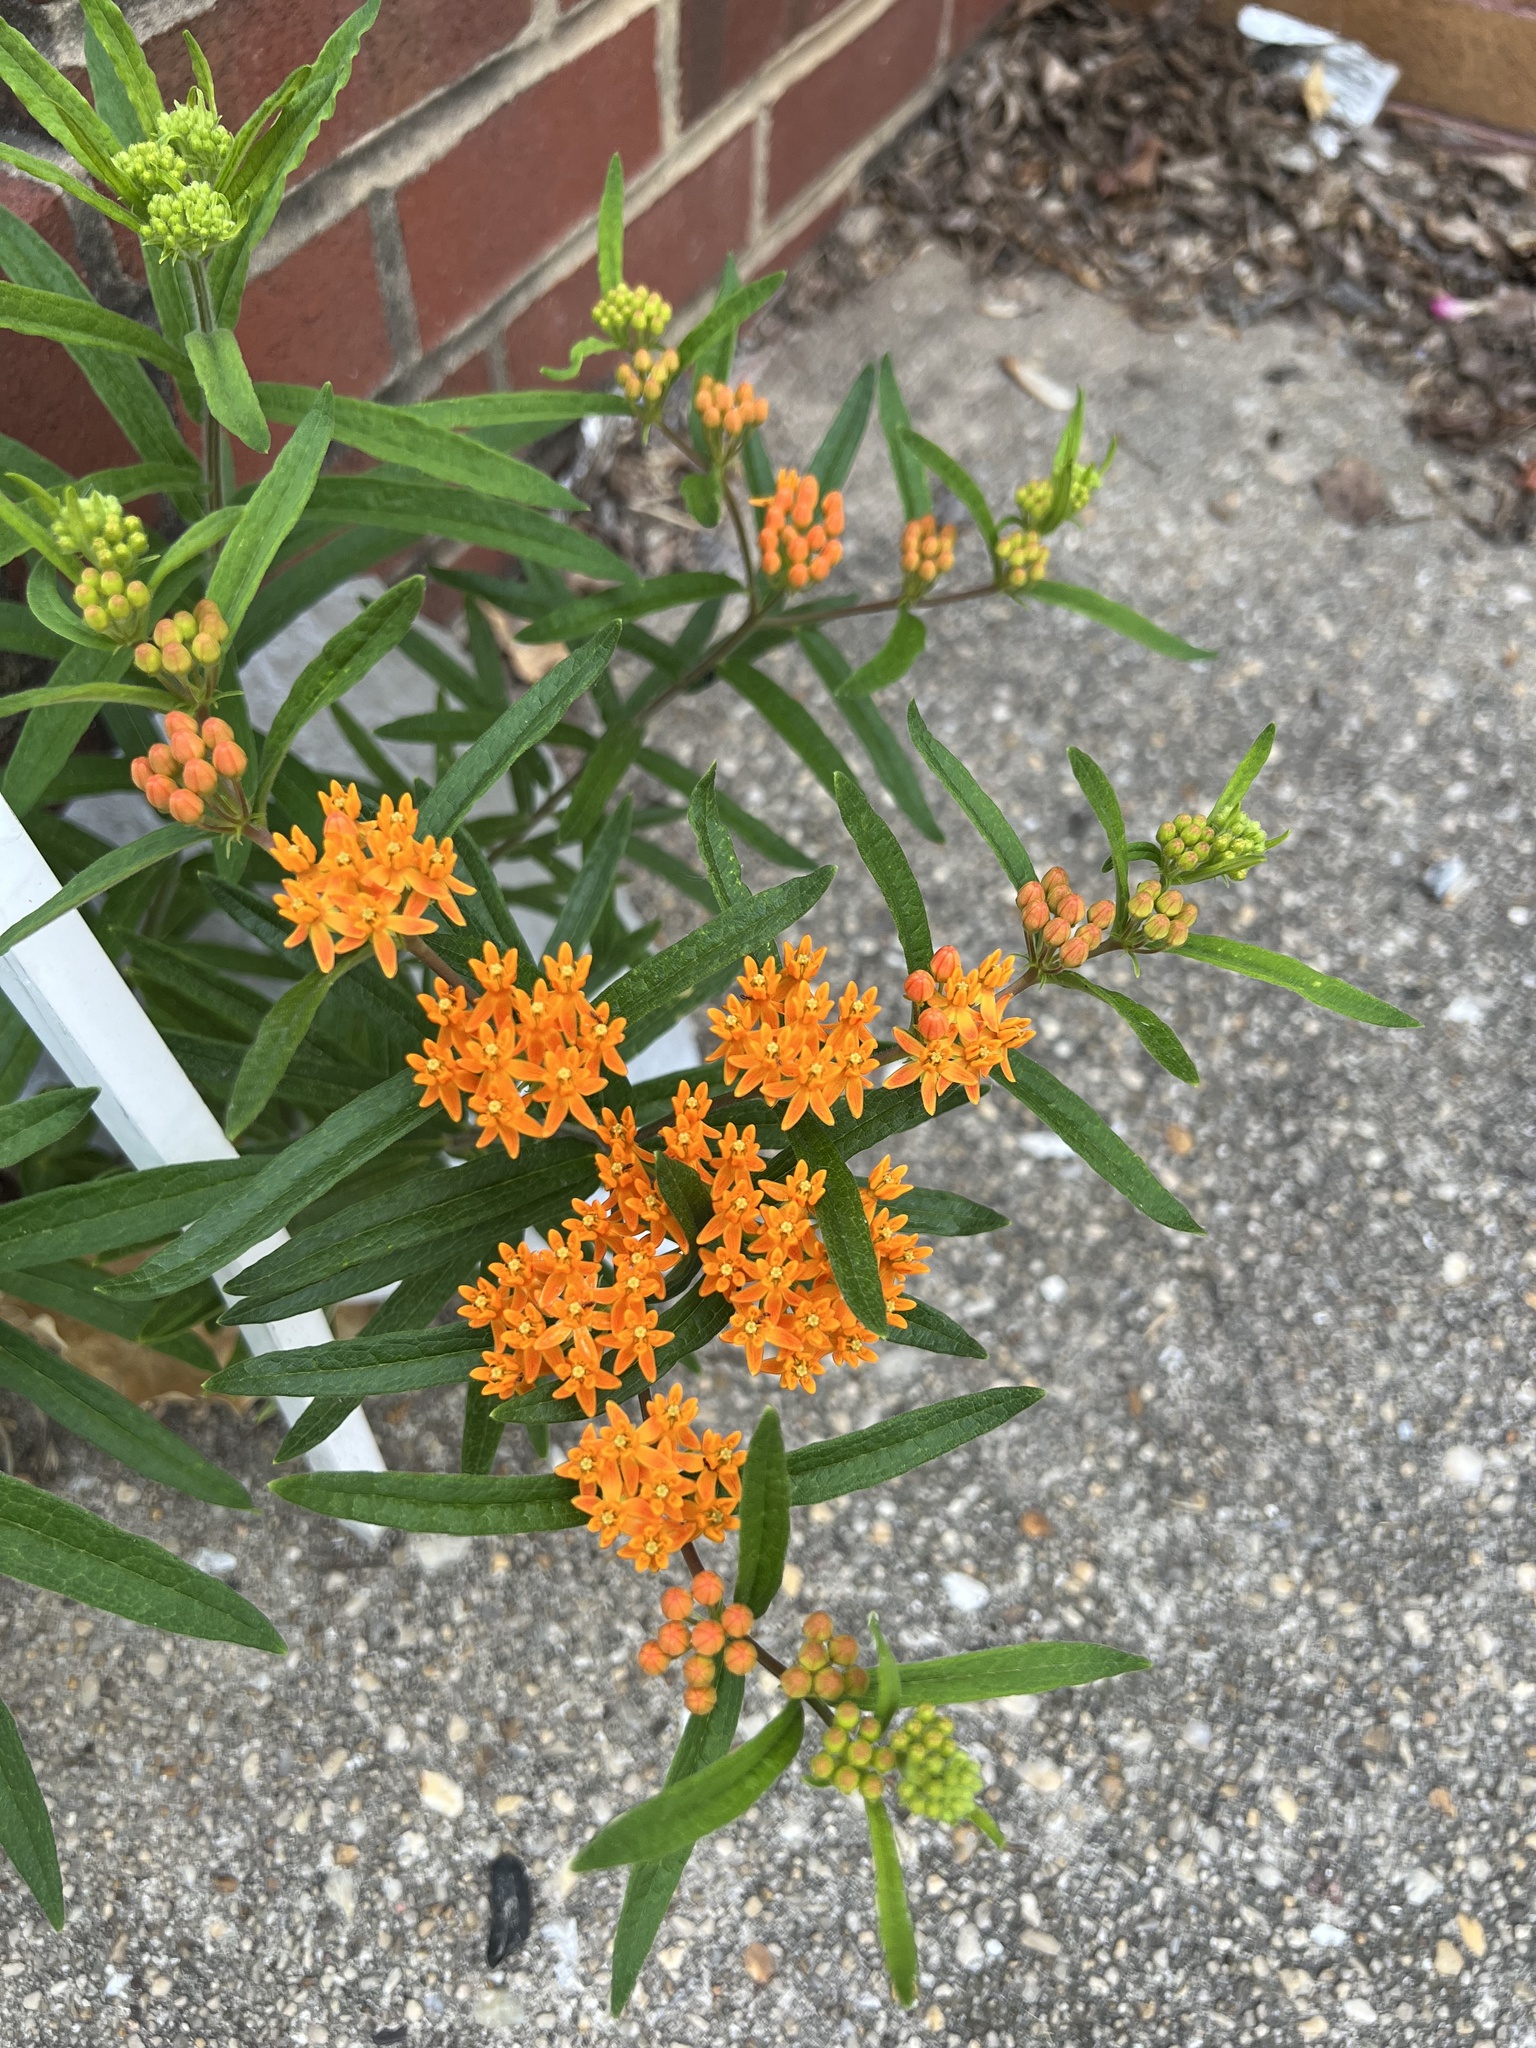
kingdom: Plantae
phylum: Tracheophyta
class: Magnoliopsida
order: Gentianales
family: Apocynaceae
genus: Asclepias
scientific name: Asclepias tuberosa
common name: Butterfly milkweed
